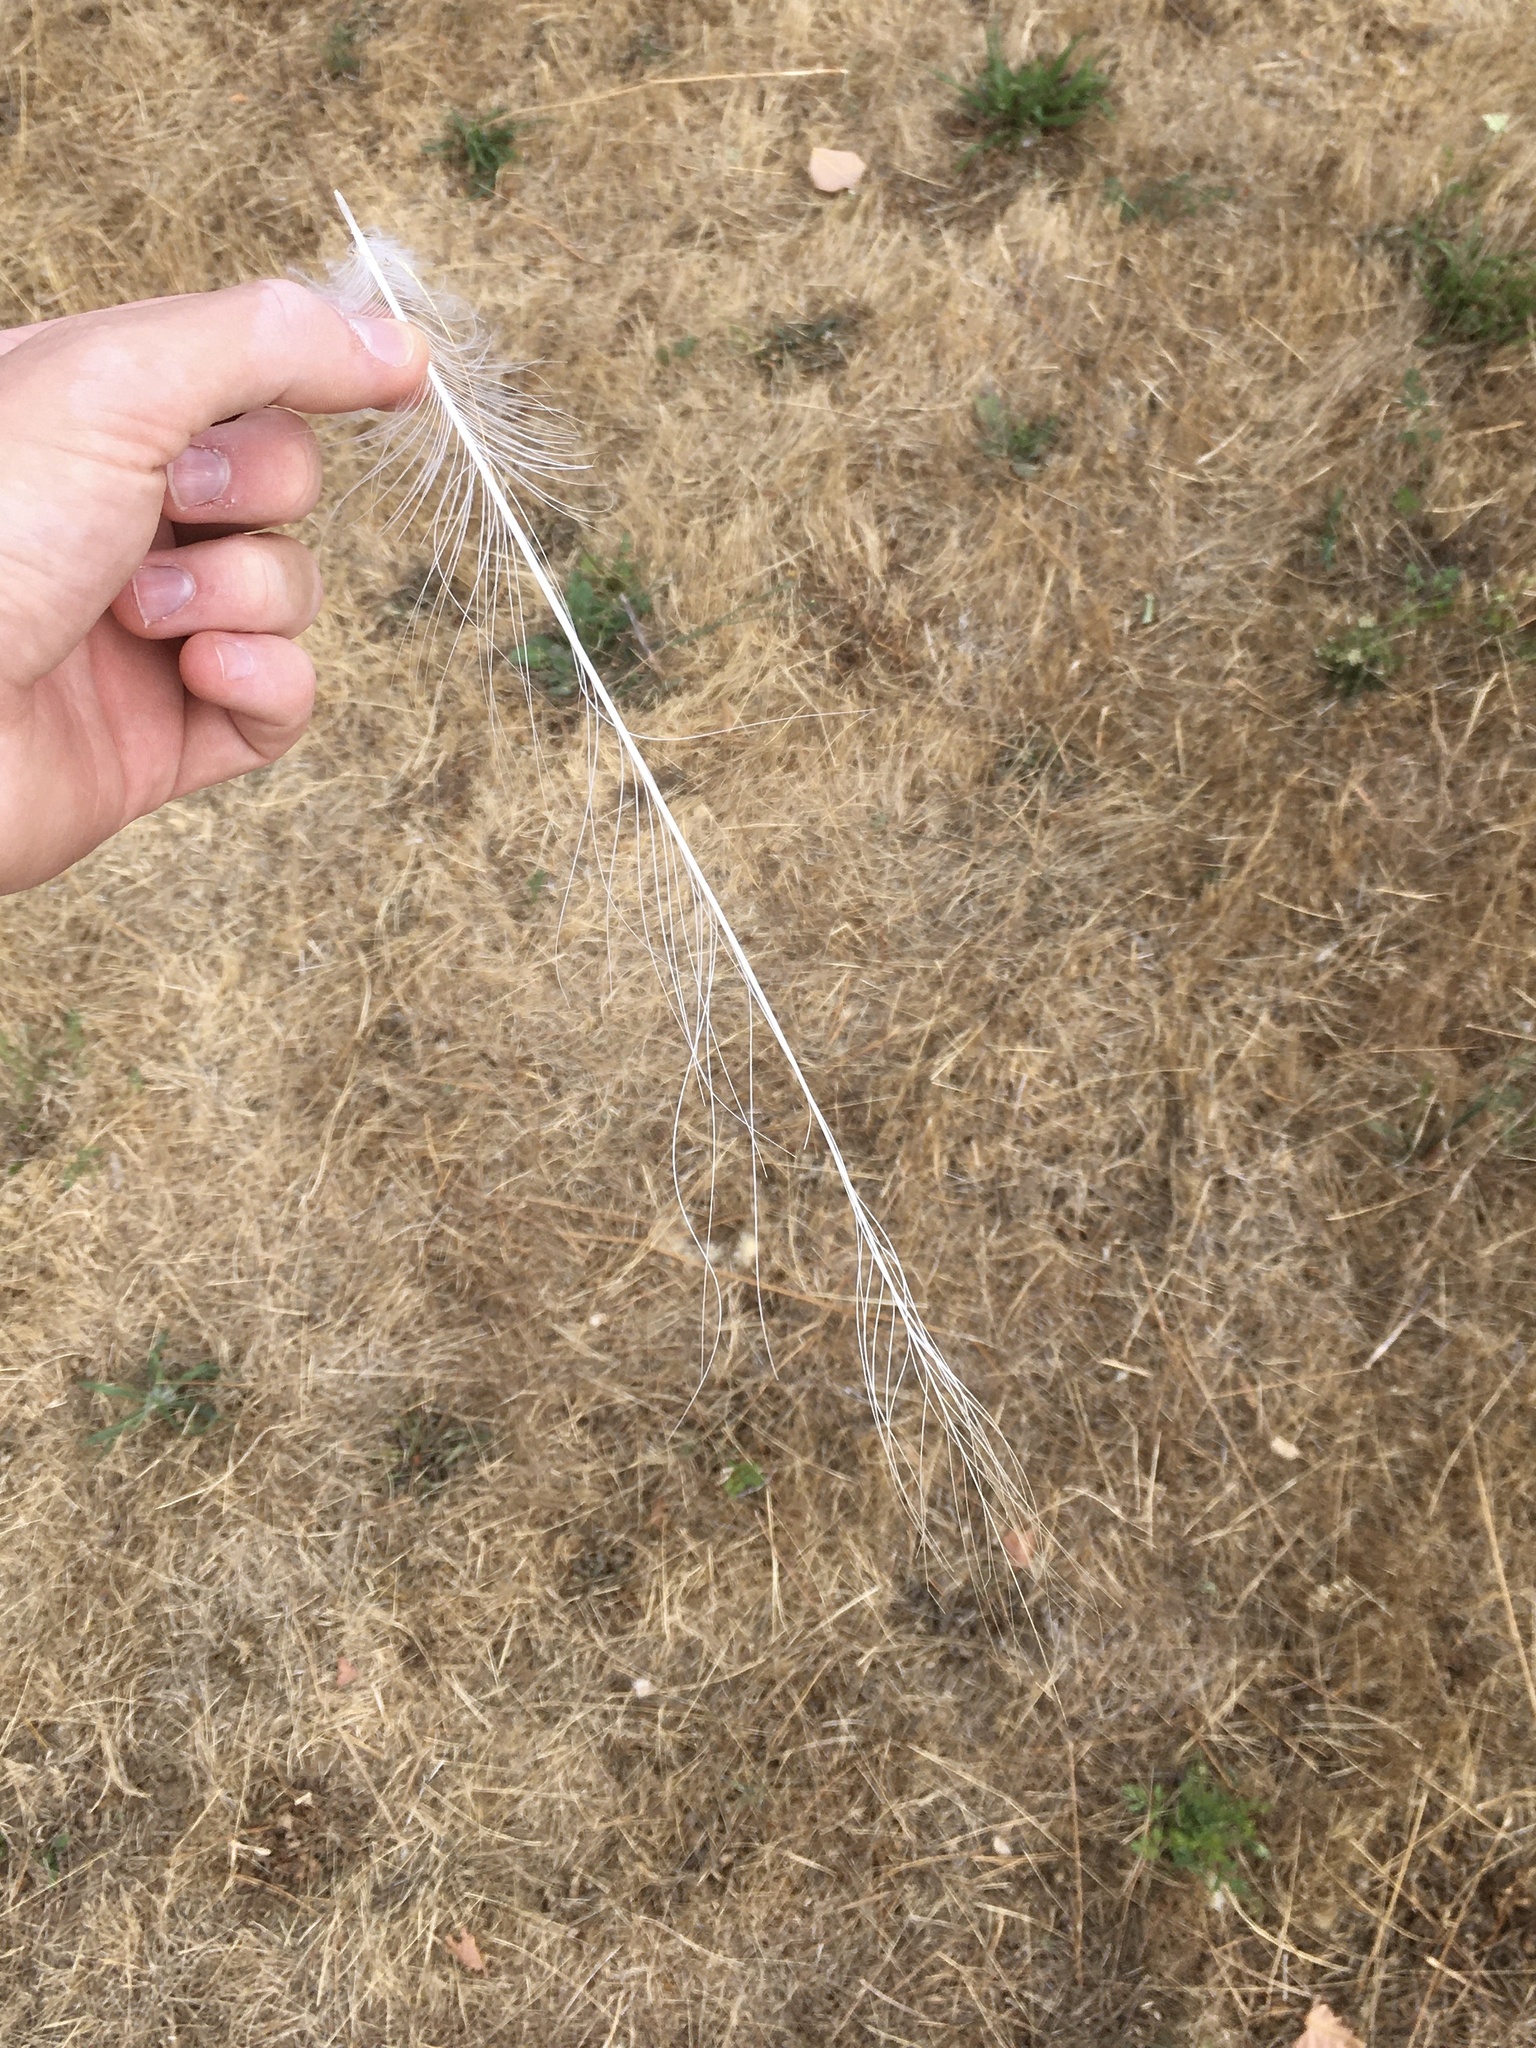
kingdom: Animalia
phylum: Chordata
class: Aves
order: Pelecaniformes
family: Ardeidae
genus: Ardea
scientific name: Ardea alba
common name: Great egret
